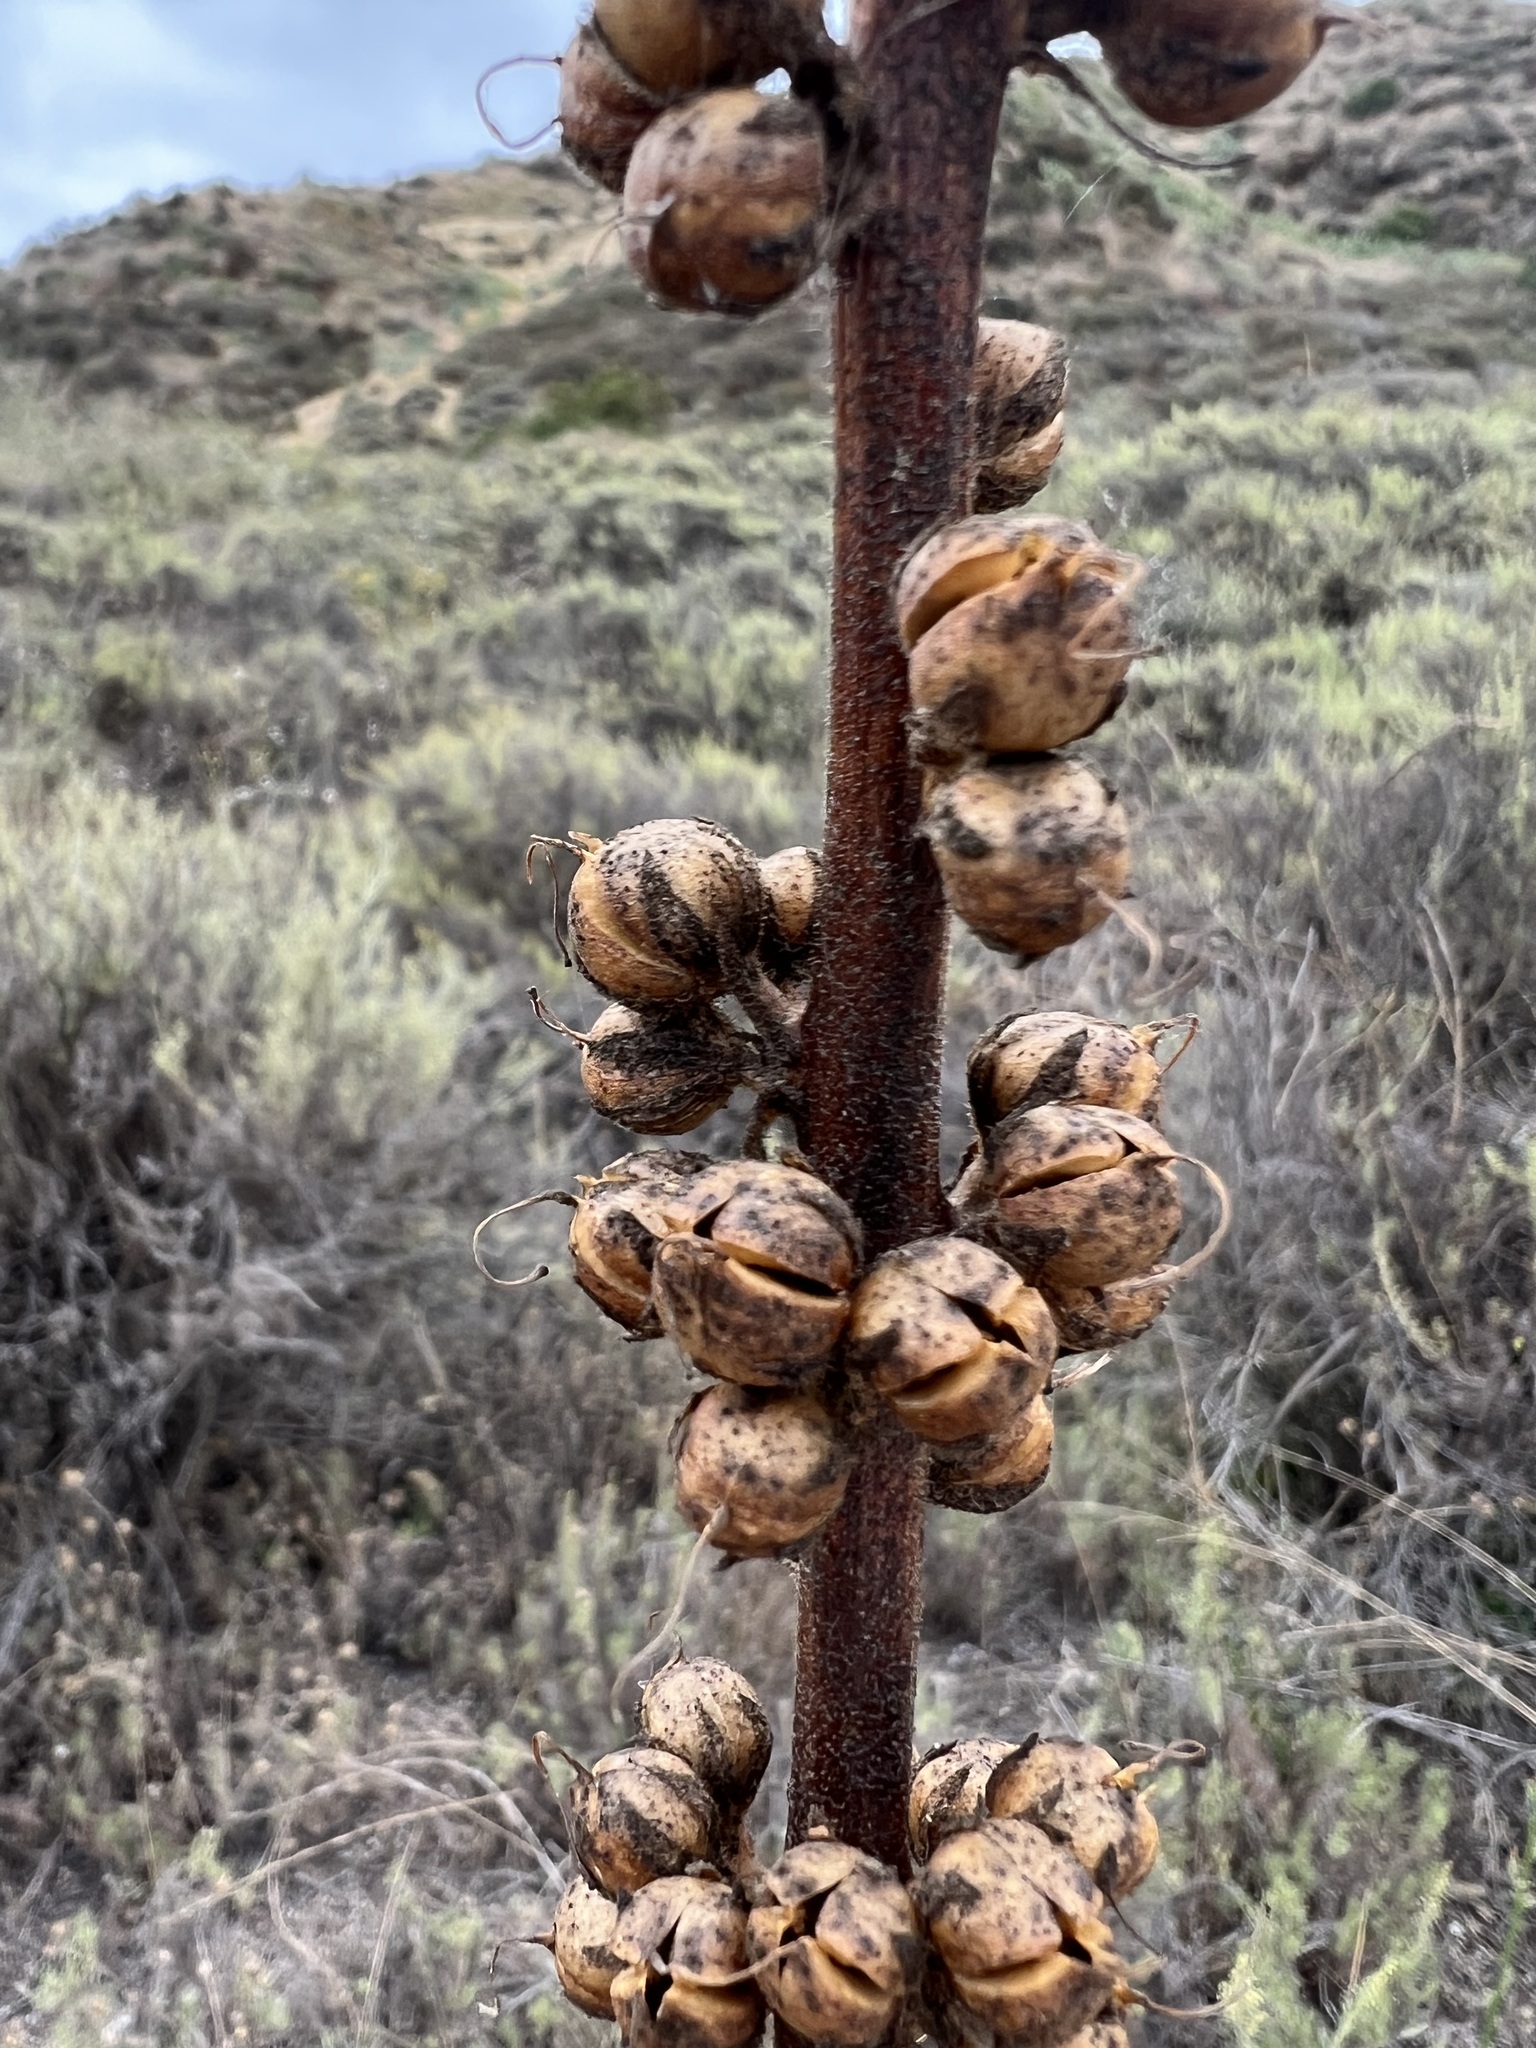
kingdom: Plantae
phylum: Tracheophyta
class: Magnoliopsida
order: Lamiales
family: Scrophulariaceae
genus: Verbascum
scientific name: Verbascum virgatum
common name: Twiggy mullein
